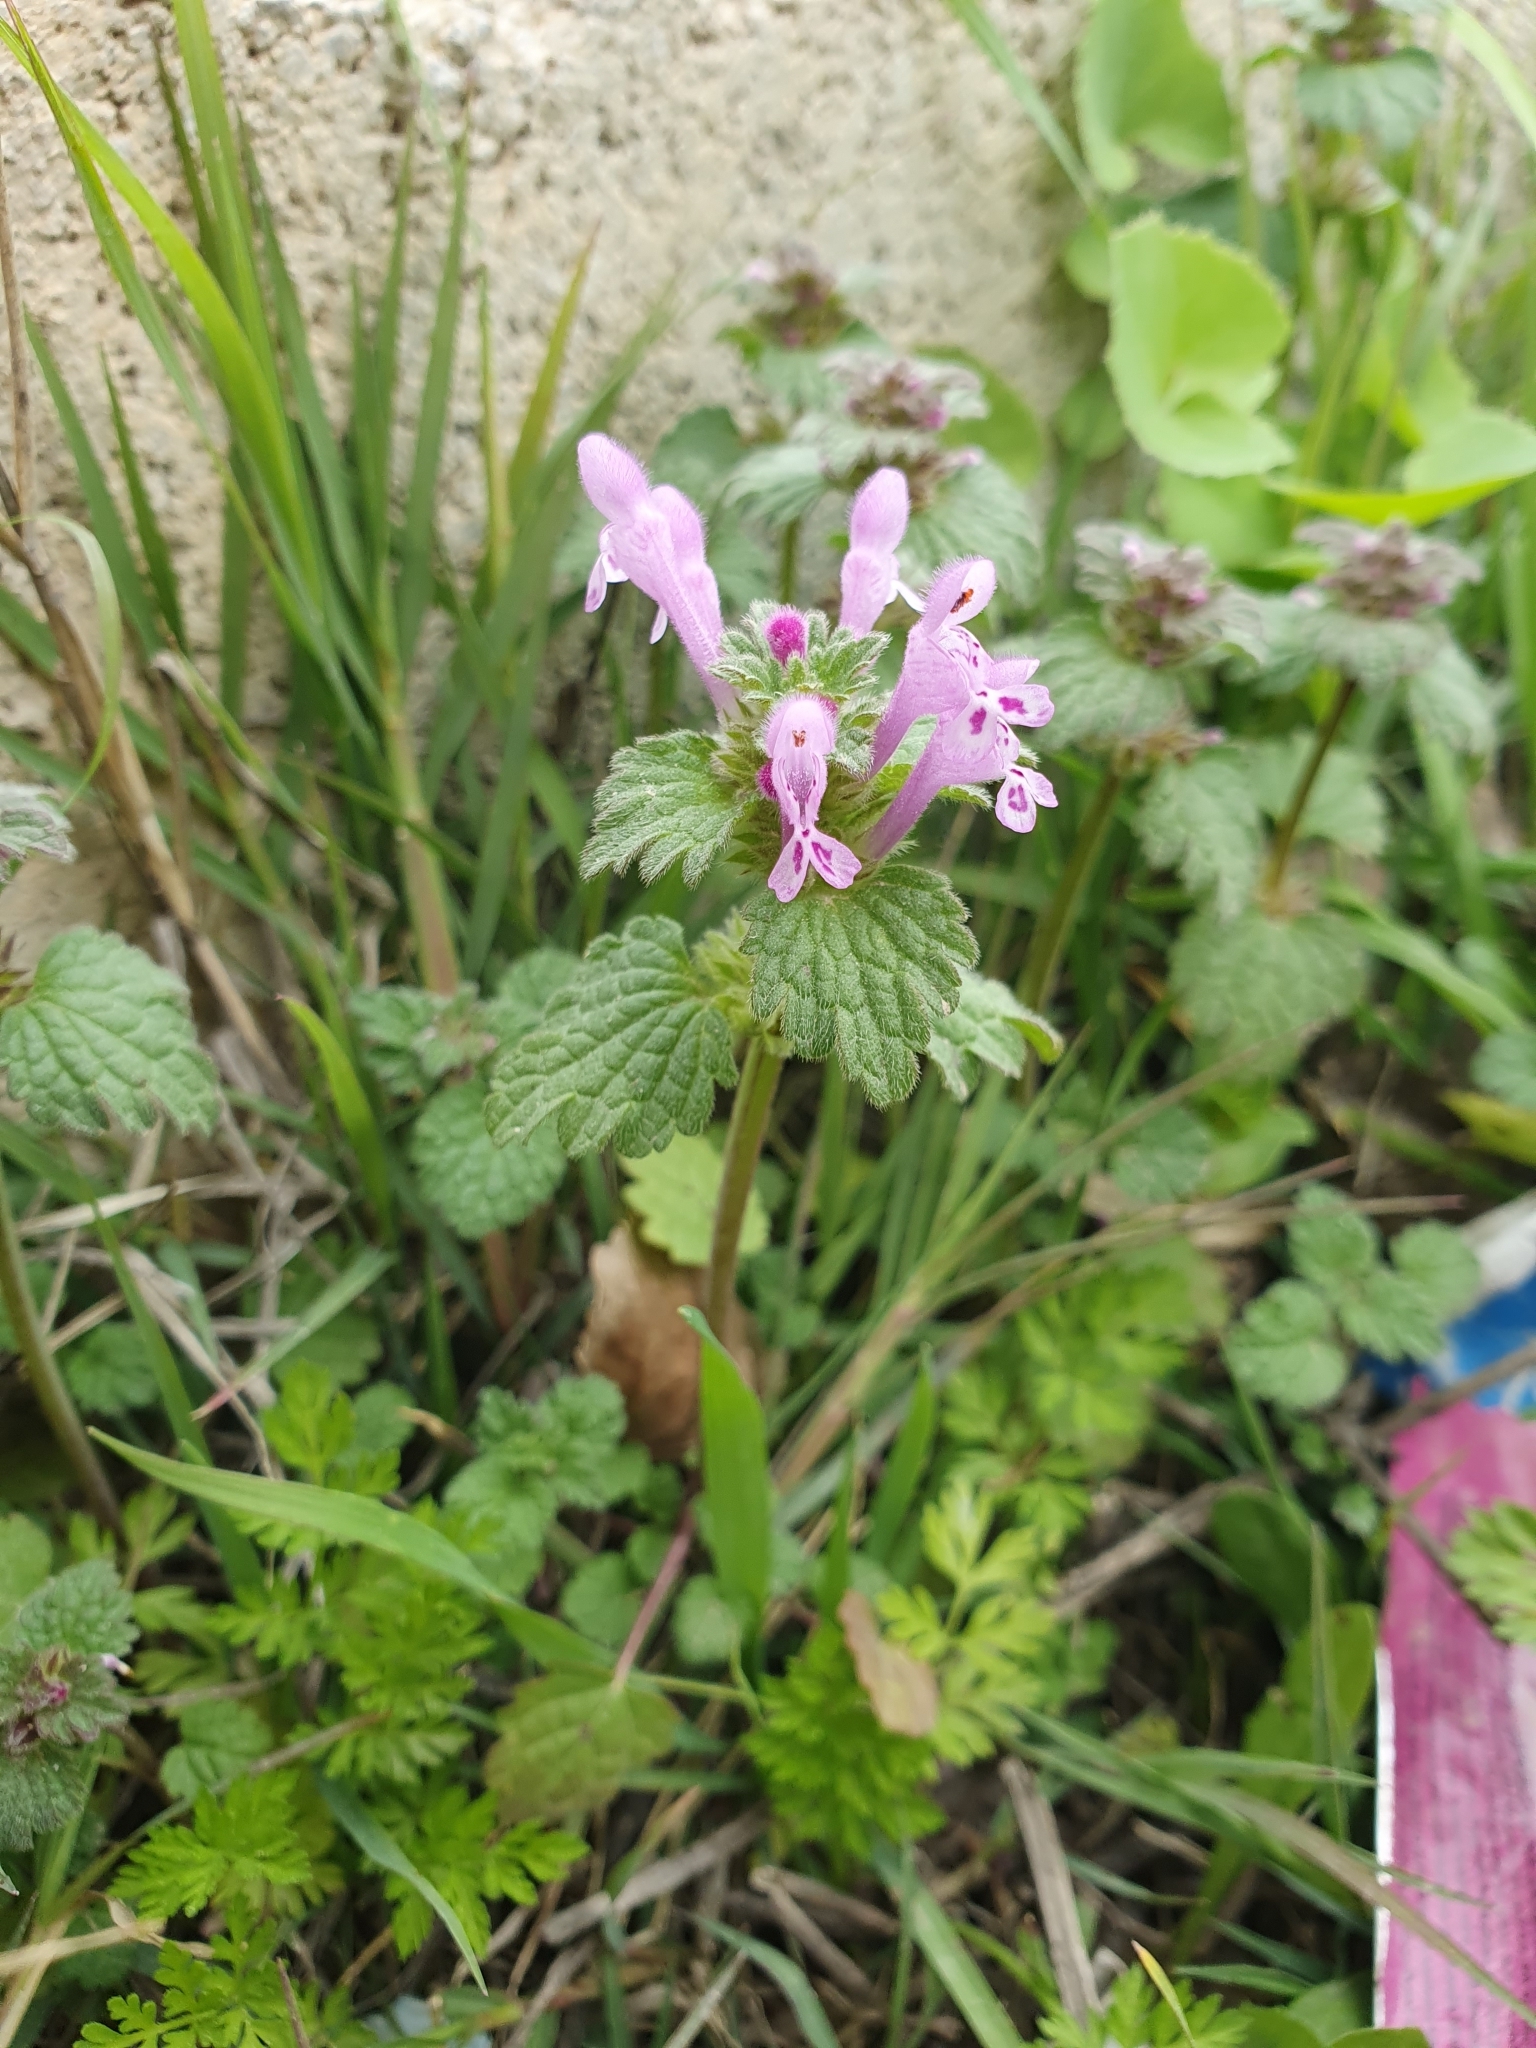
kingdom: Plantae
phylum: Tracheophyta
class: Magnoliopsida
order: Lamiales
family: Lamiaceae
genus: Lamium
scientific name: Lamium amplexicaule
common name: Henbit dead-nettle
